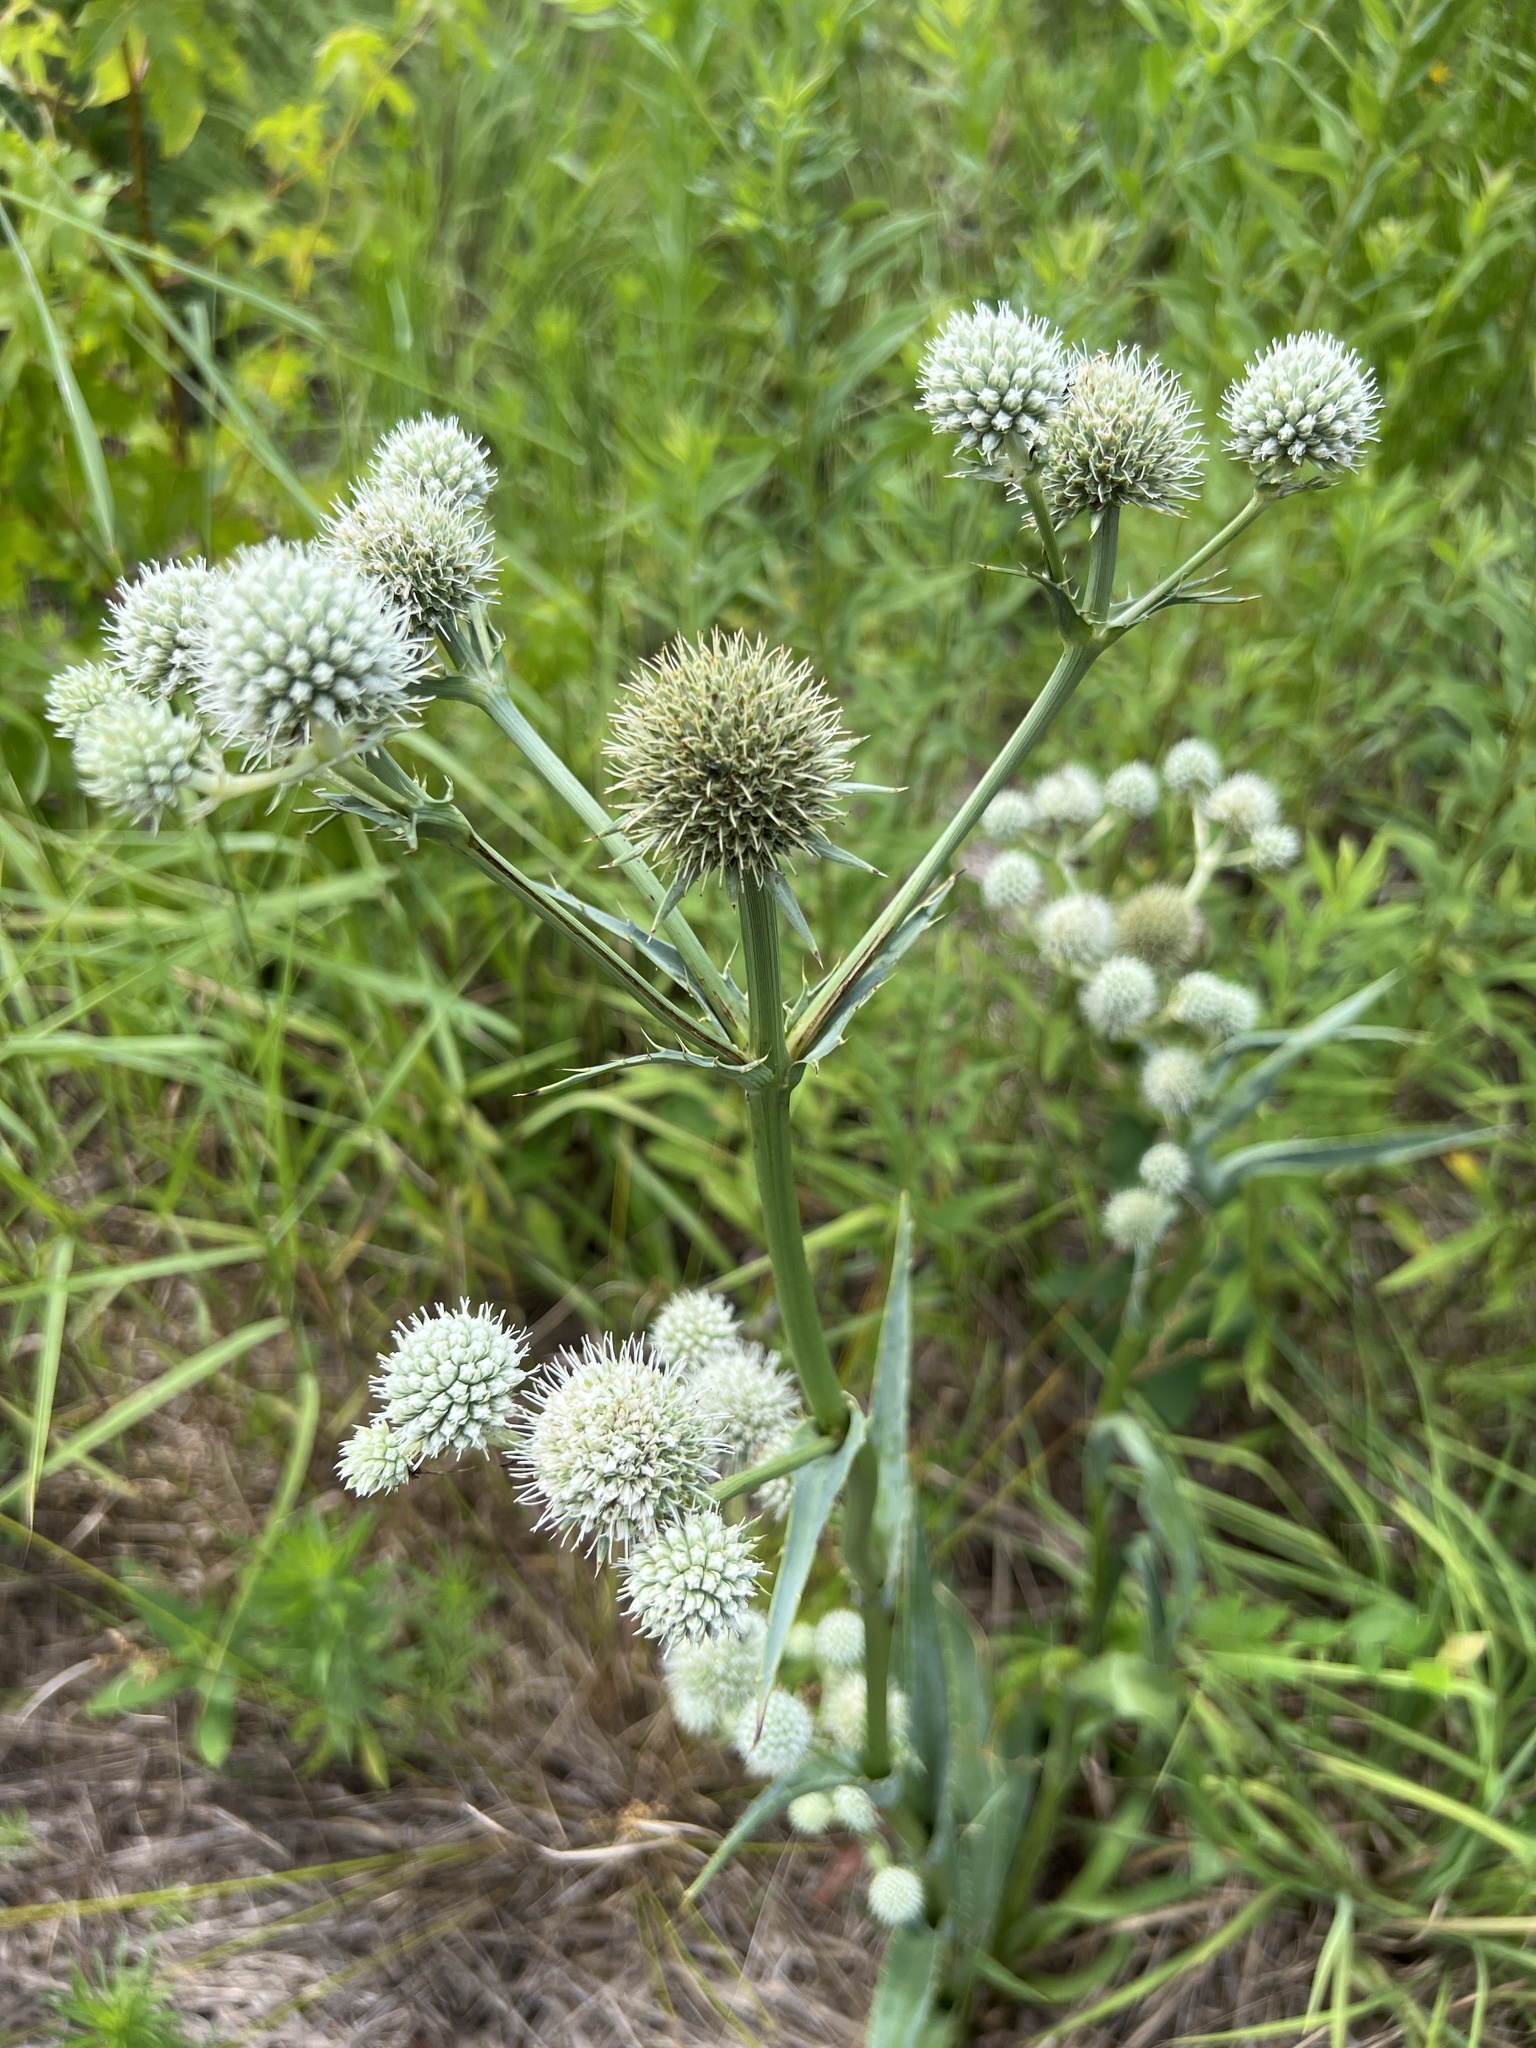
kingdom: Plantae
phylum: Tracheophyta
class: Magnoliopsida
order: Apiales
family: Apiaceae
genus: Eryngium
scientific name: Eryngium yuccifolium
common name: Button eryngo
